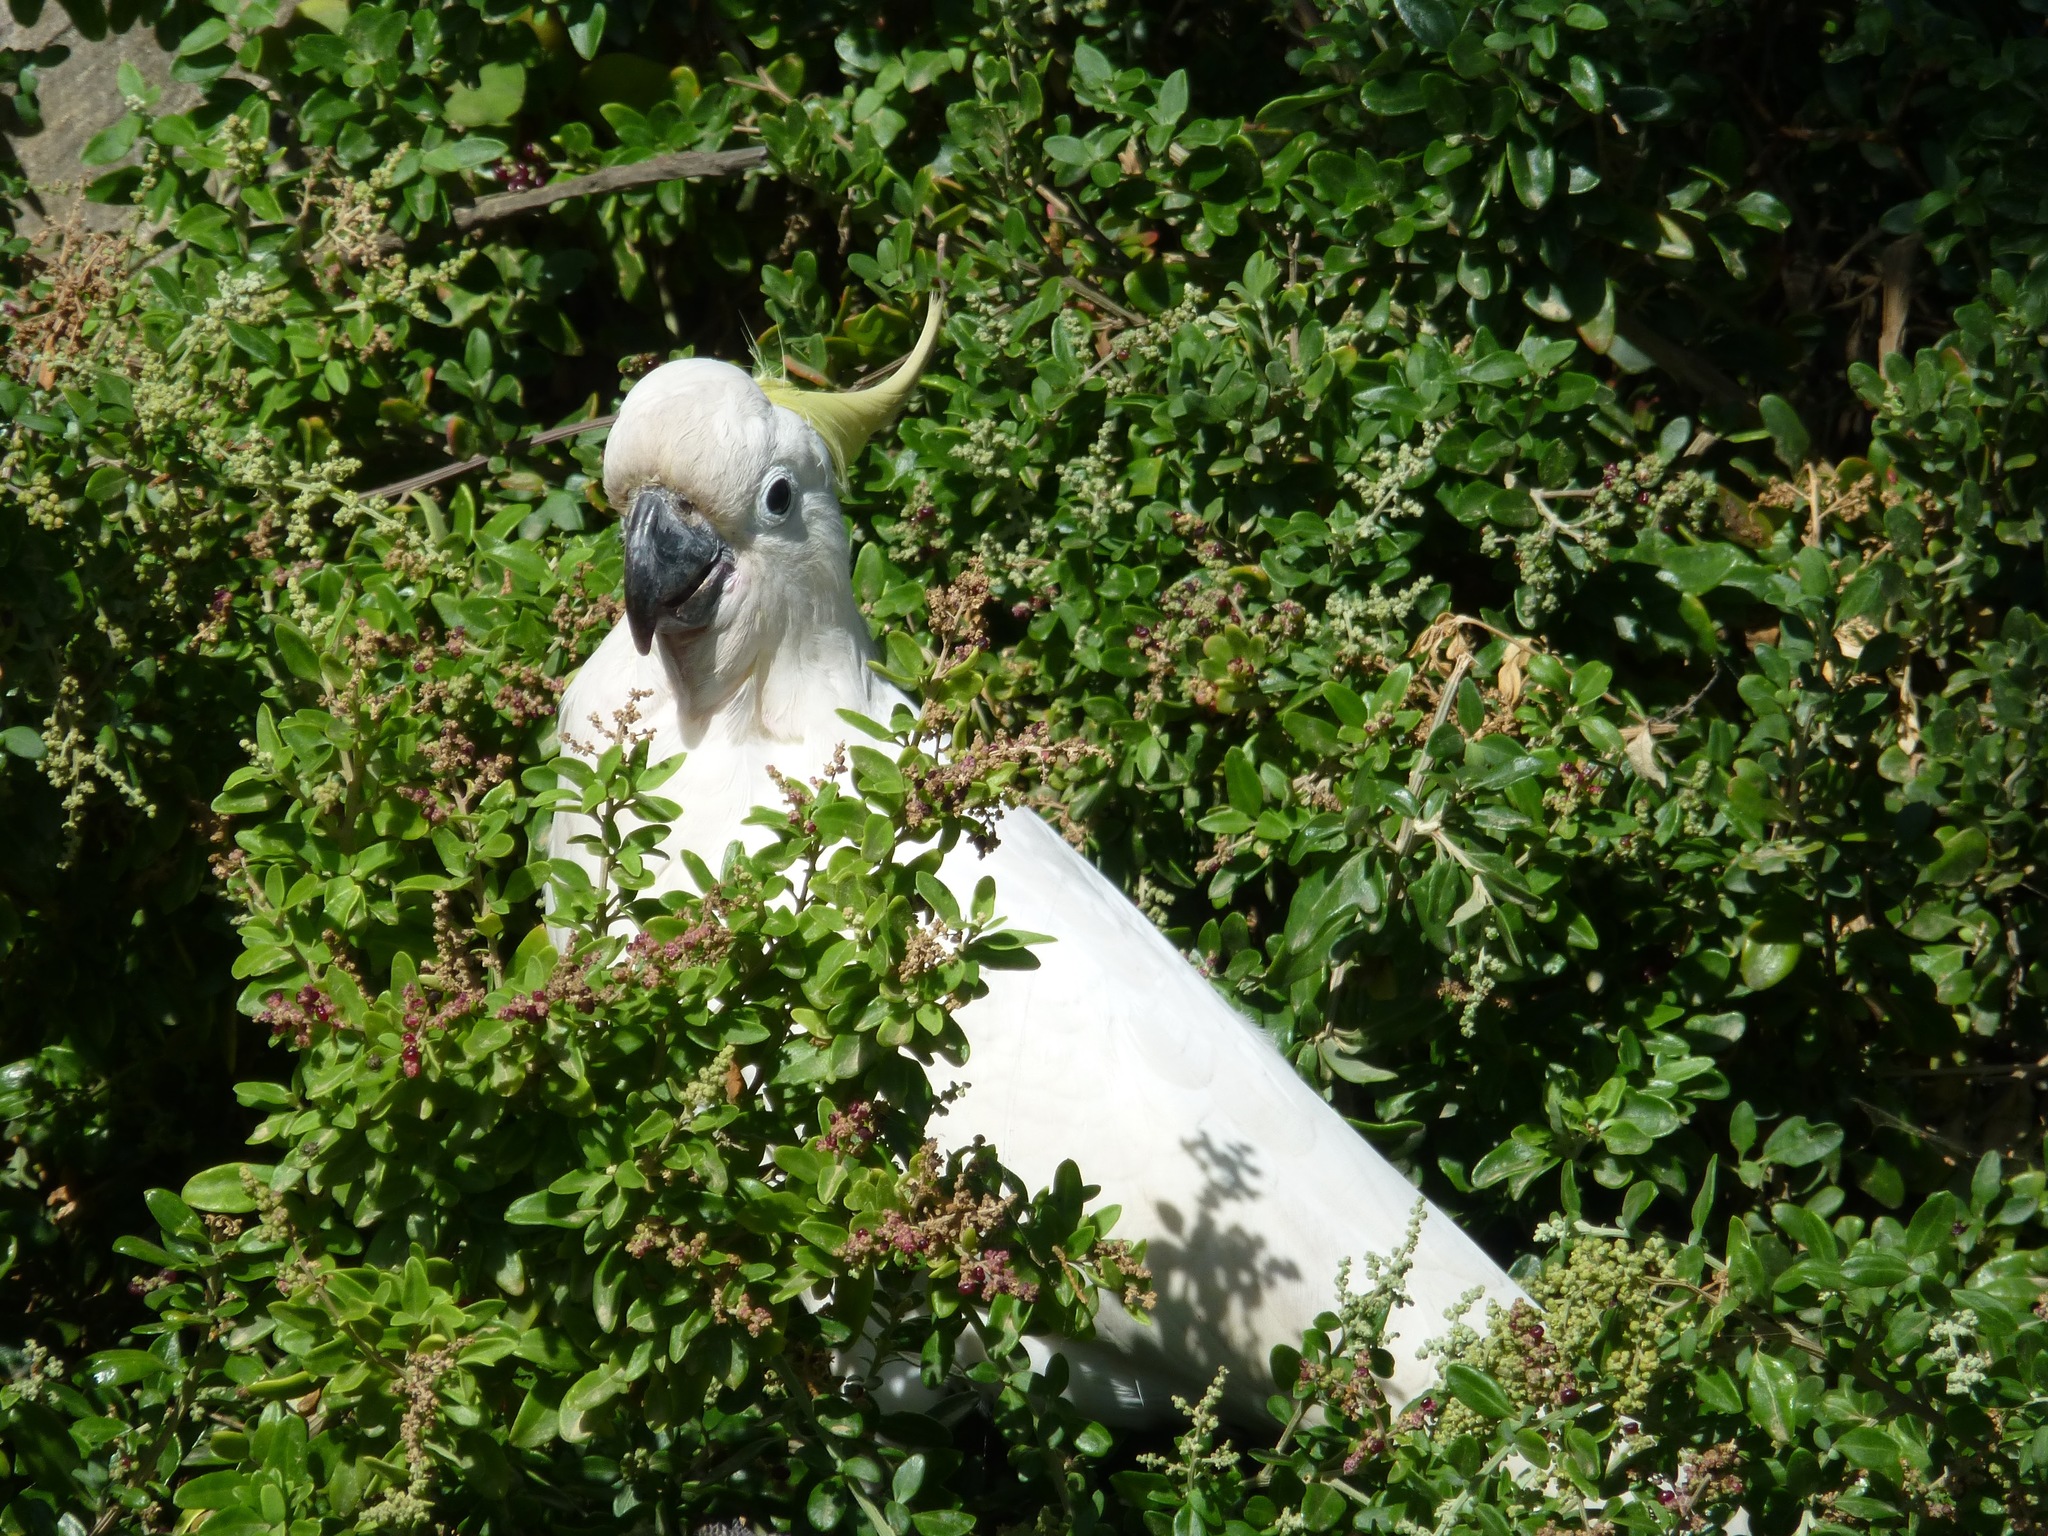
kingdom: Animalia
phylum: Chordata
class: Aves
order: Psittaciformes
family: Psittacidae
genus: Cacatua
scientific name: Cacatua galerita
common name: Sulphur-crested cockatoo
